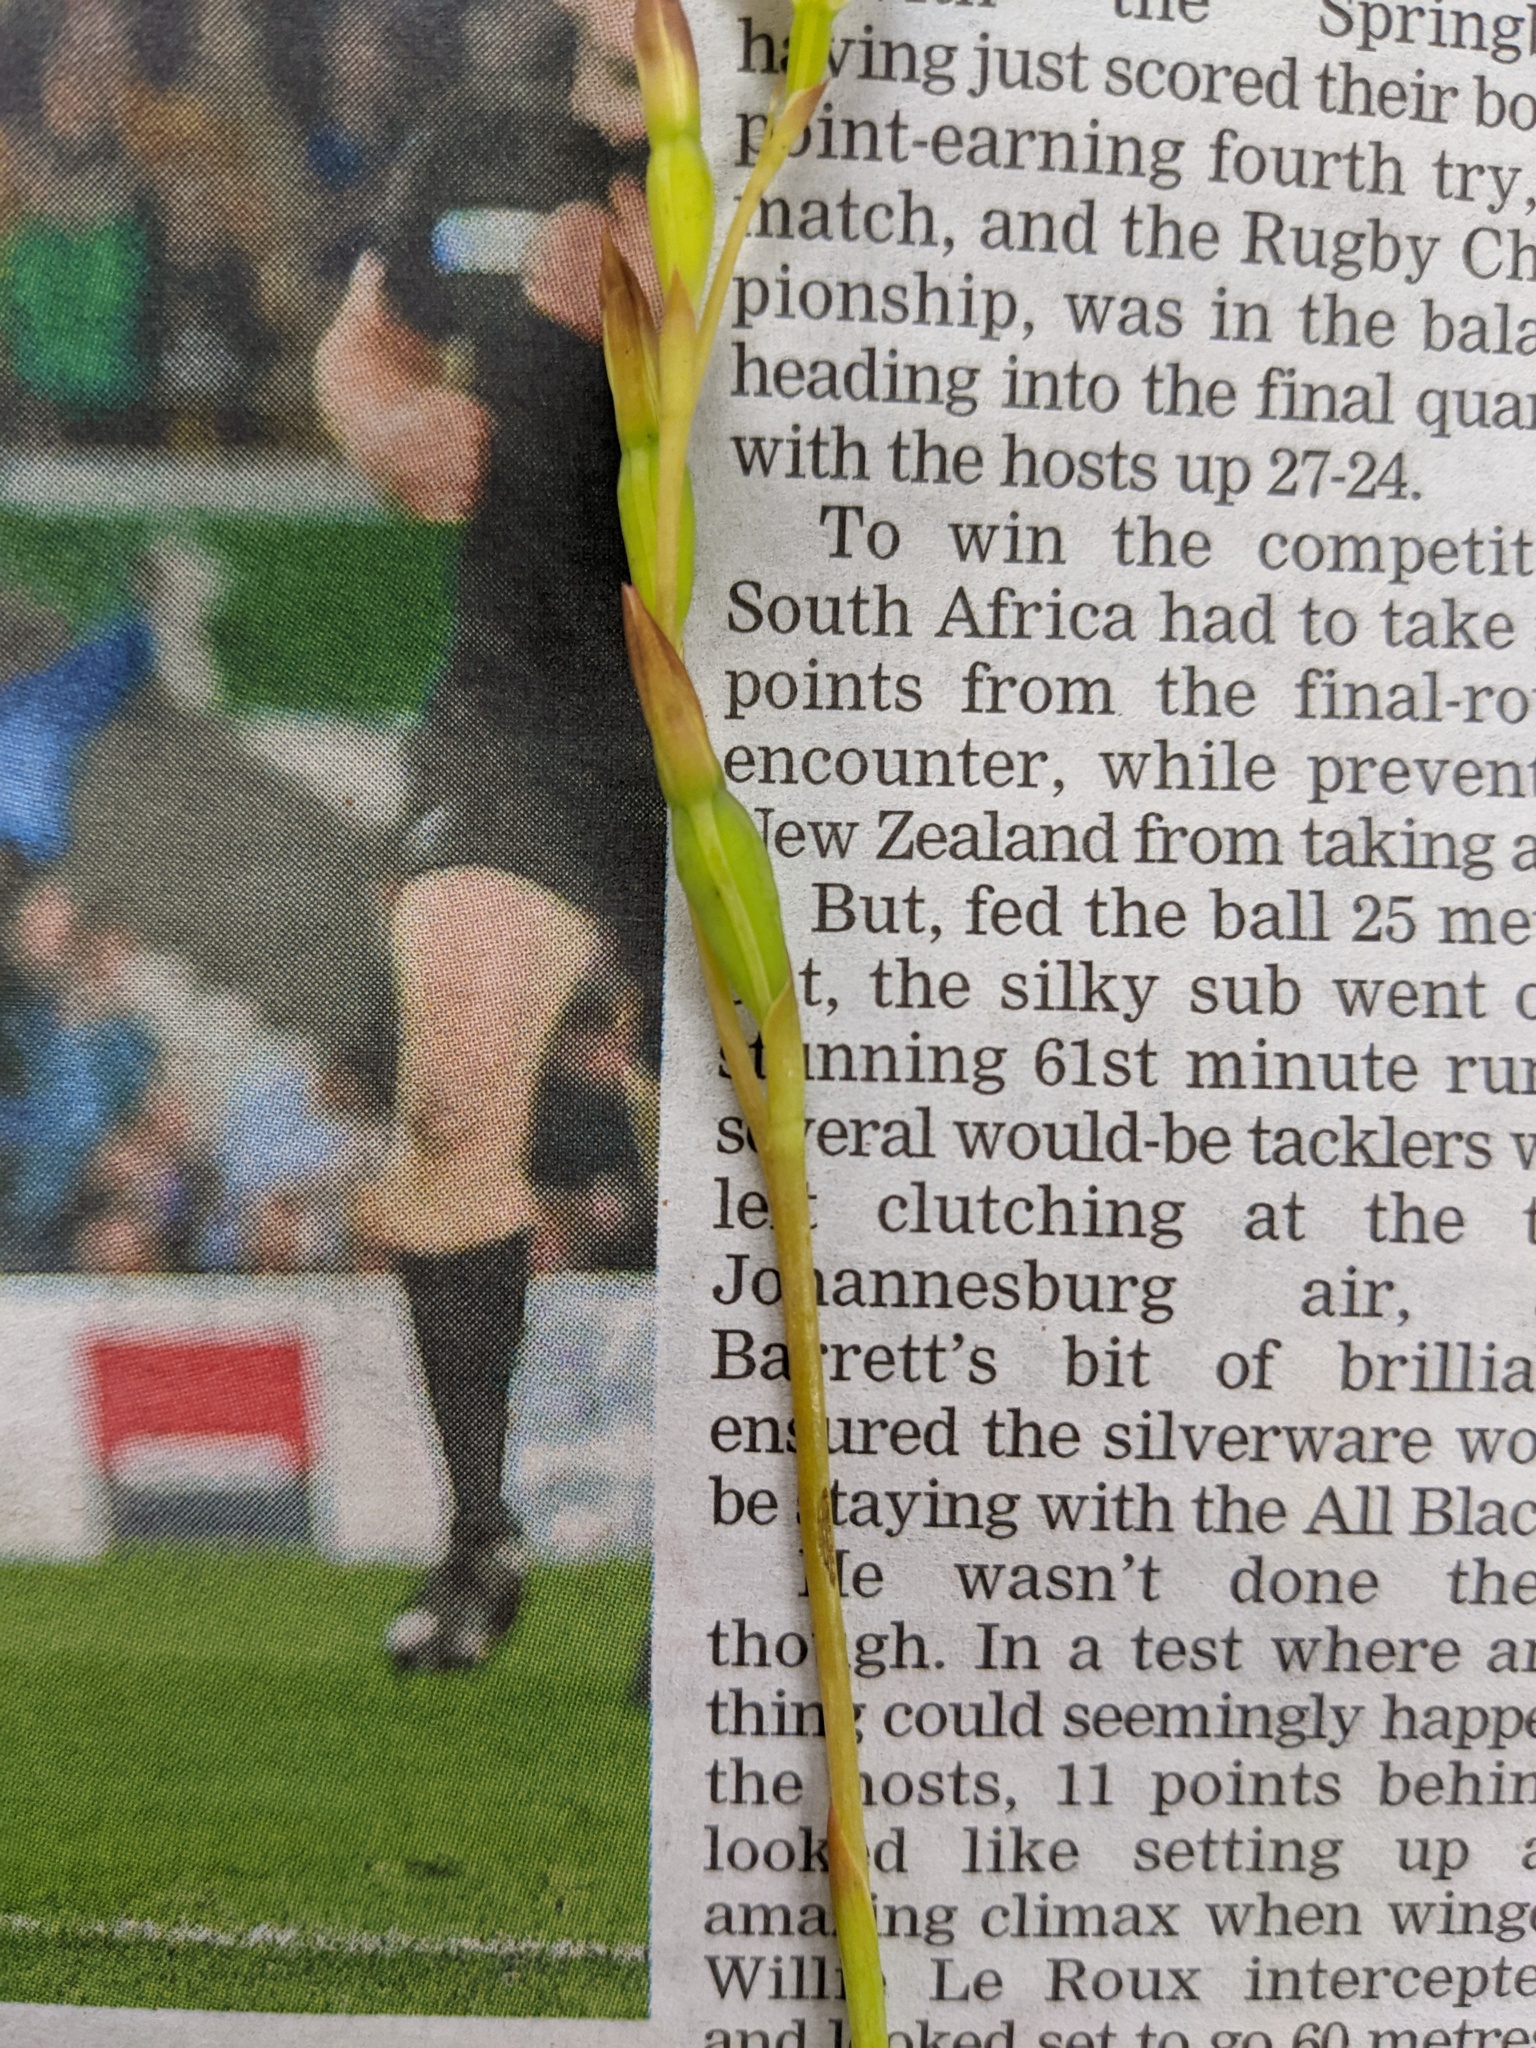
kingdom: Plantae
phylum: Tracheophyta
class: Liliopsida
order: Asparagales
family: Orchidaceae
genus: Thelymitra
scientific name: Thelymitra longifolia
